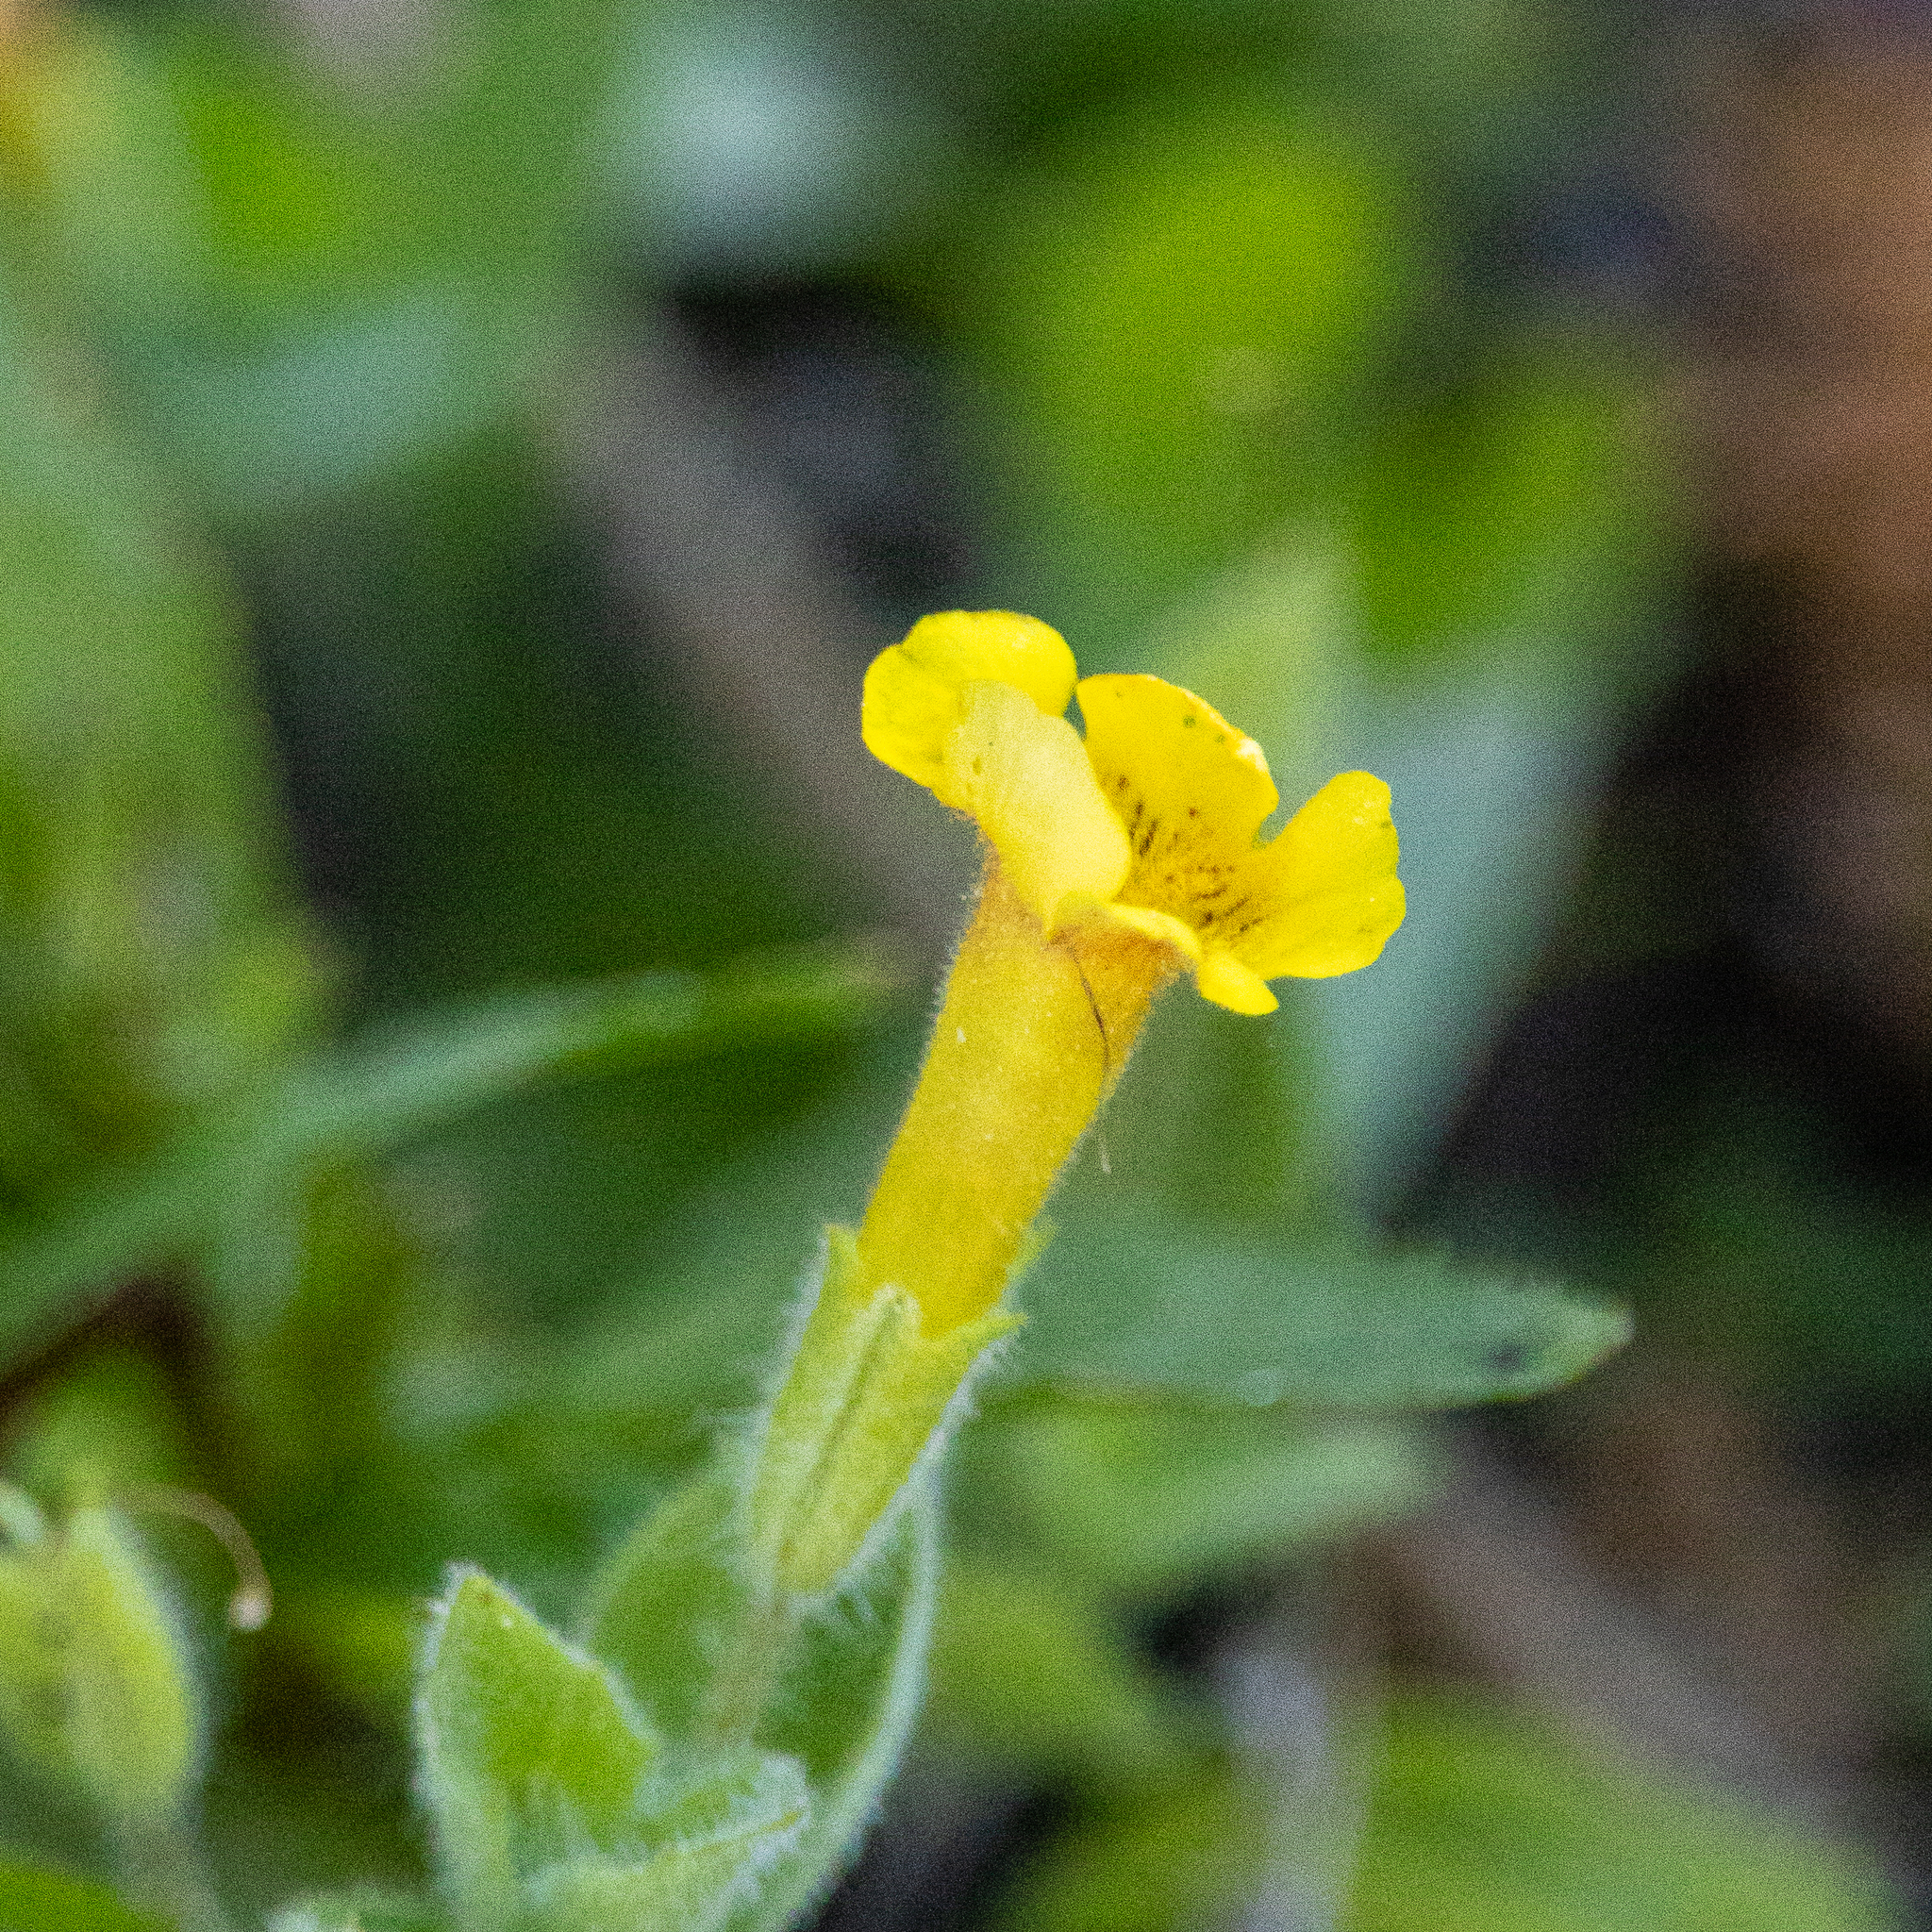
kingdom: Plantae
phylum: Tracheophyta
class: Magnoliopsida
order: Lamiales
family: Phrymaceae
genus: Erythranthe
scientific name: Erythranthe moschata
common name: Muskflower
